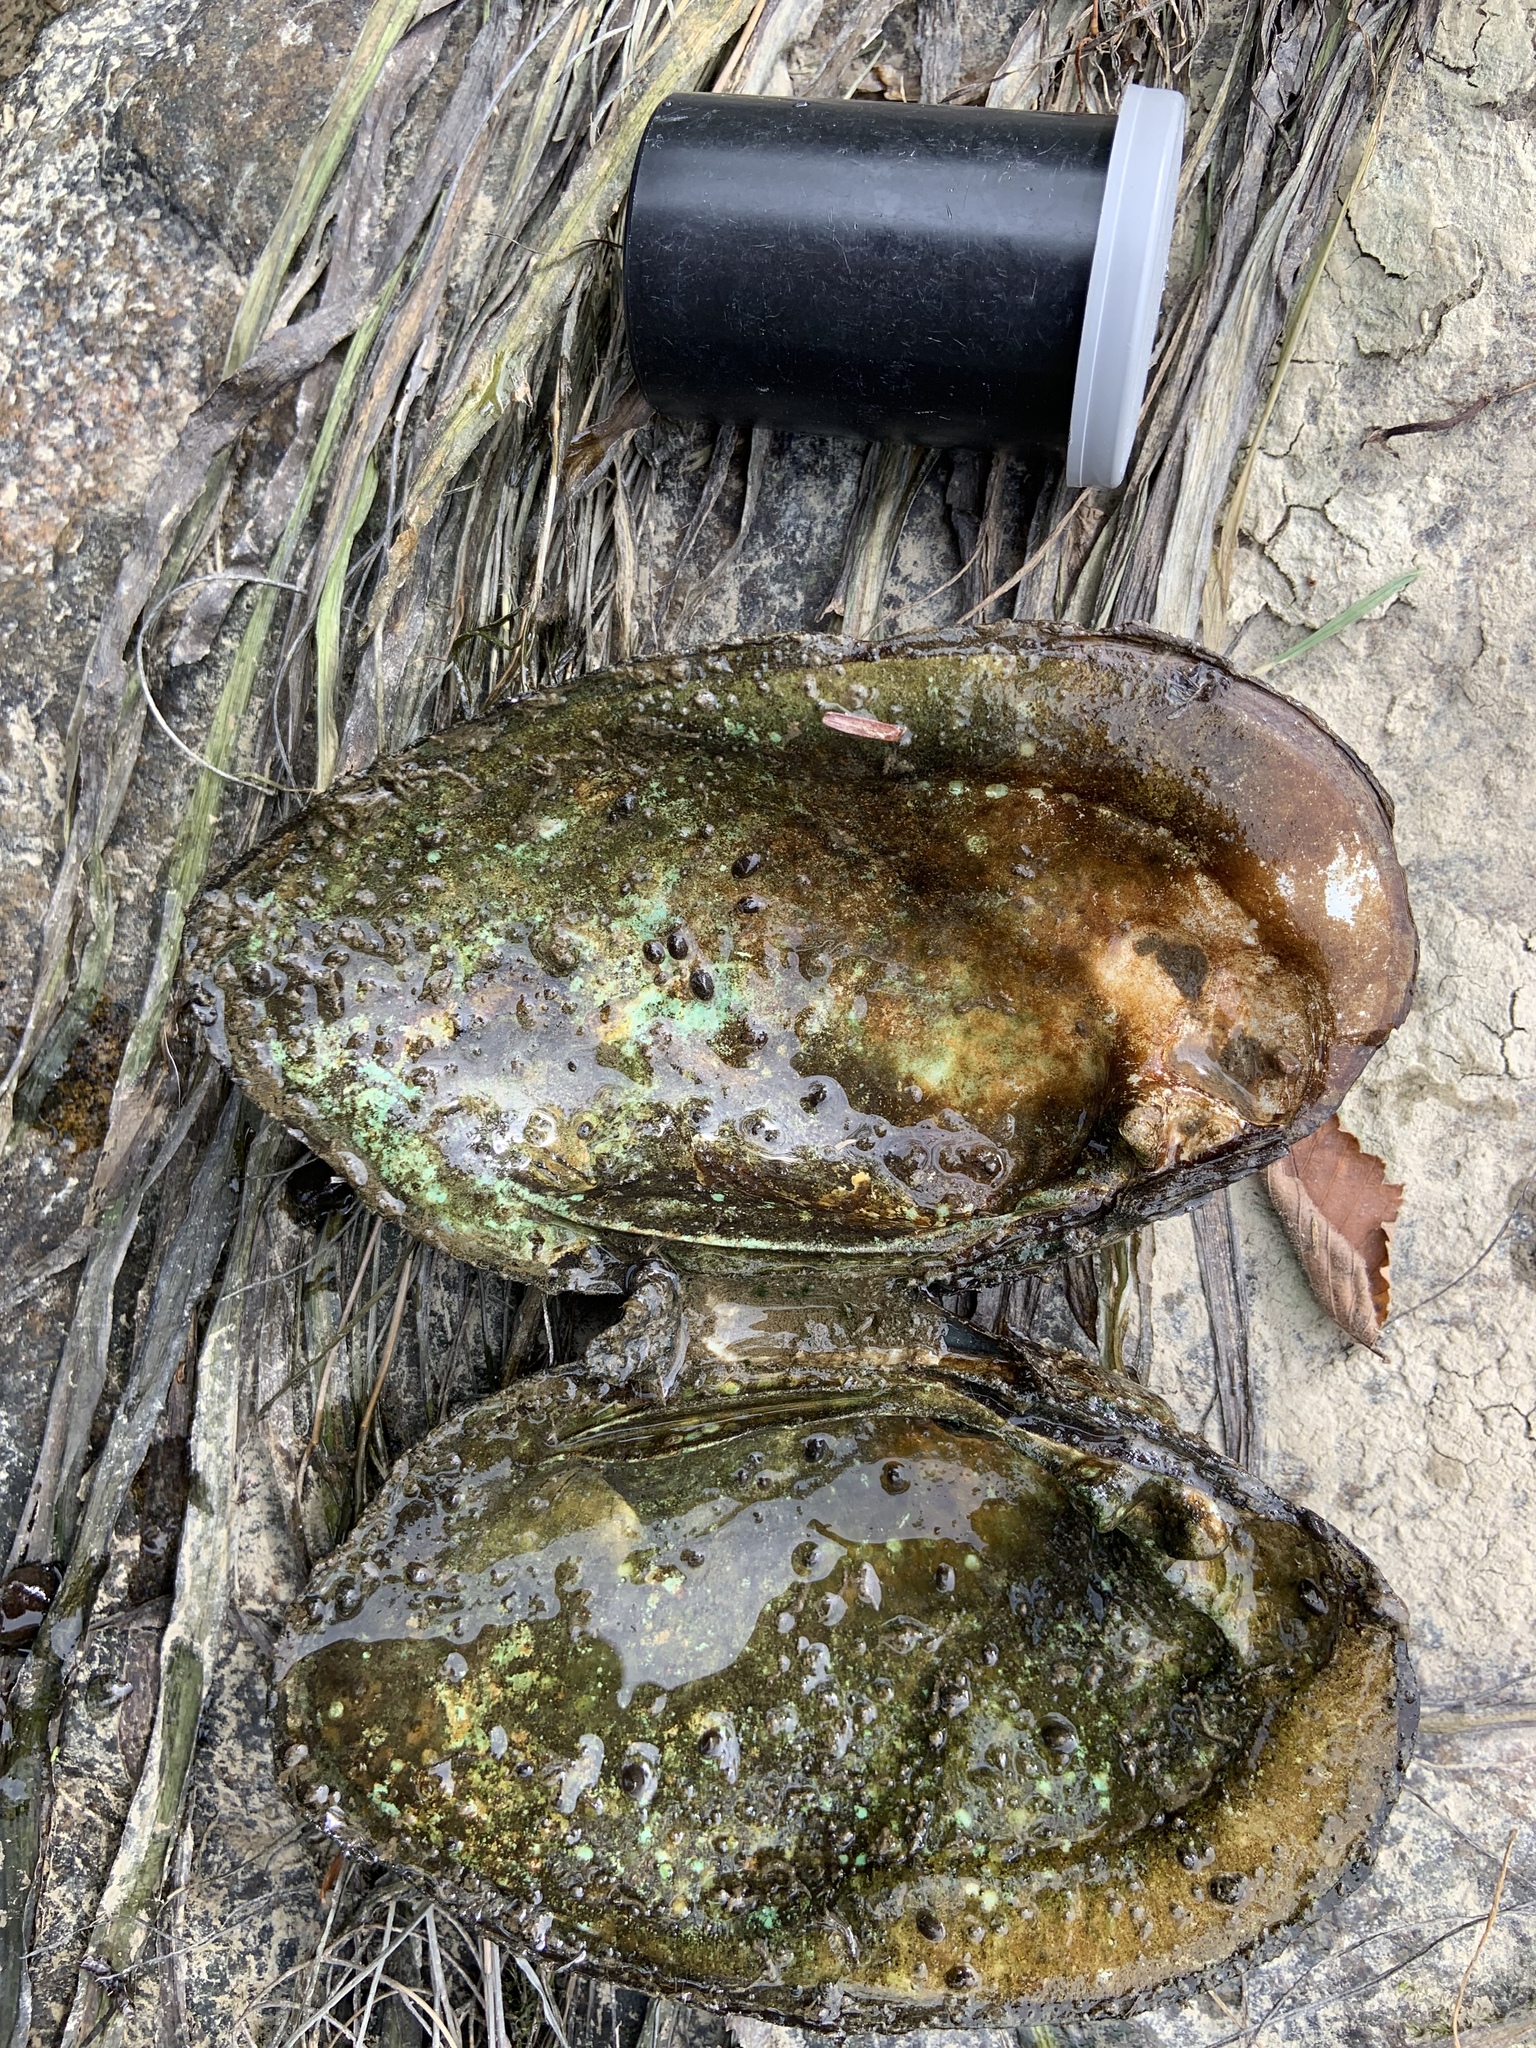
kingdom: Animalia
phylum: Mollusca
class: Bivalvia
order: Unionida
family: Unionidae
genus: Ortmanniana
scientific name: Ortmanniana ligamentina
